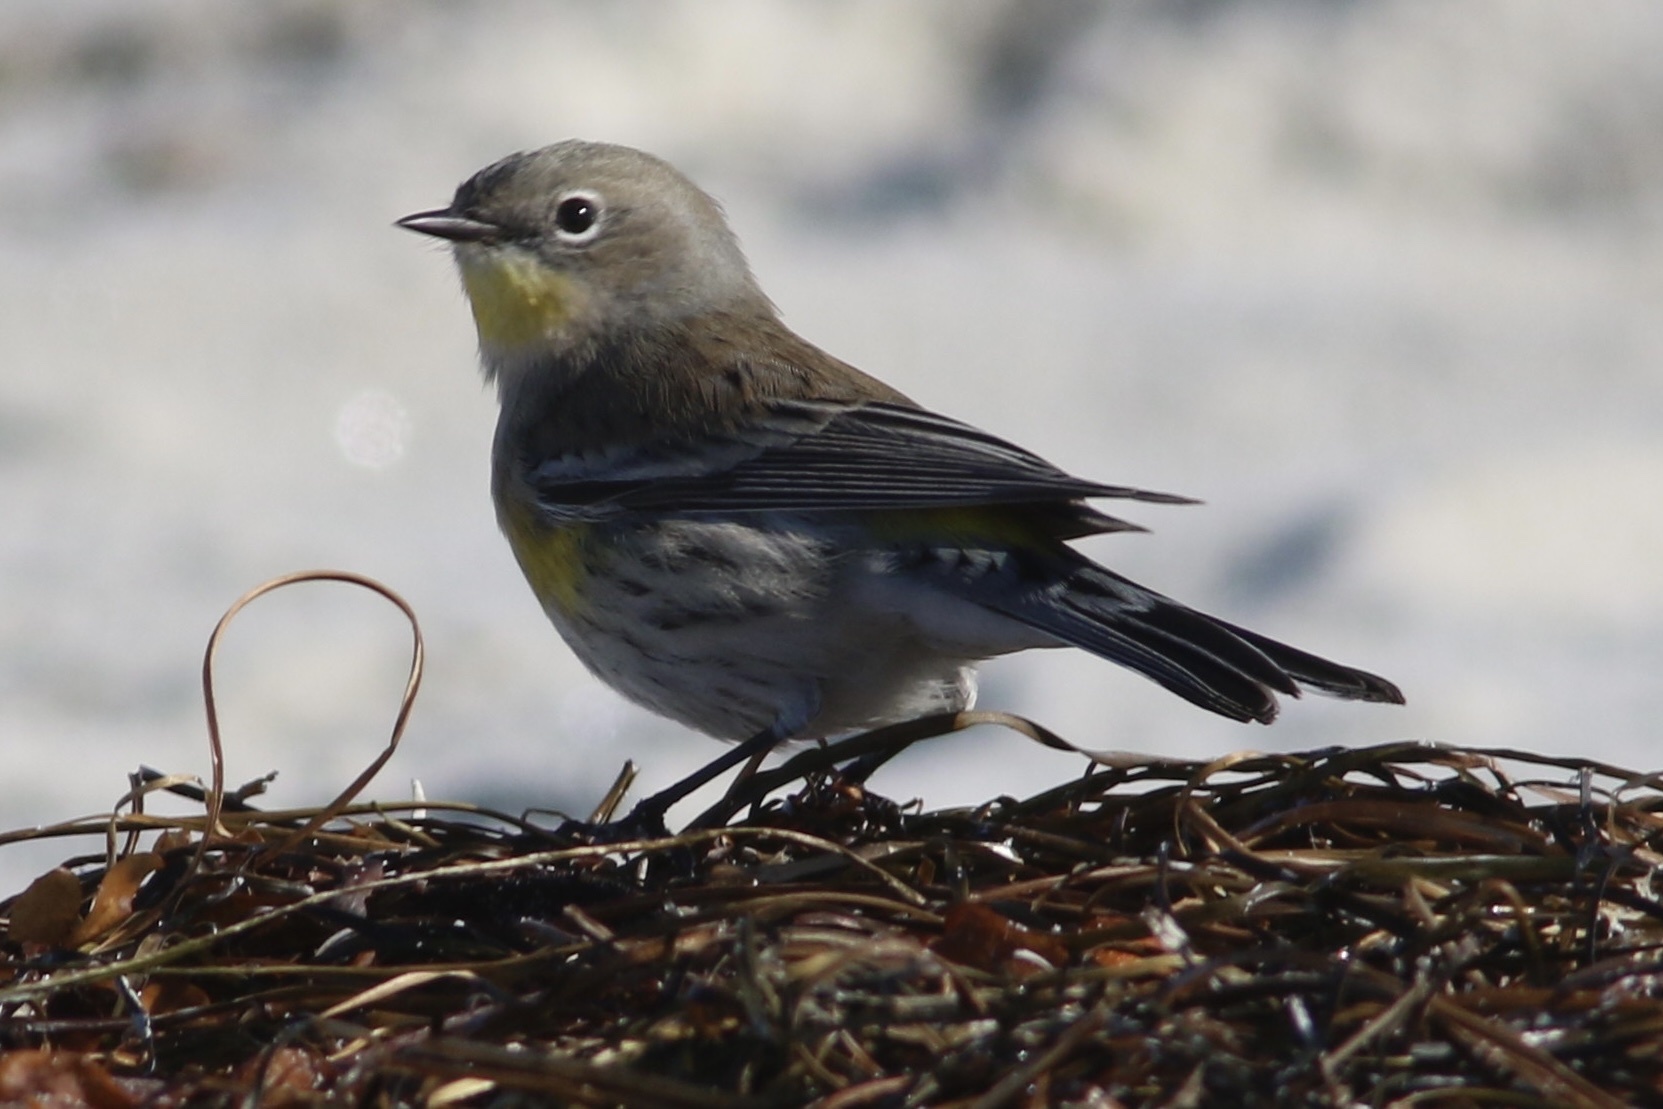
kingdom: Animalia
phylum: Chordata
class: Aves
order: Passeriformes
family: Parulidae
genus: Setophaga
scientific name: Setophaga coronata
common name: Myrtle warbler
